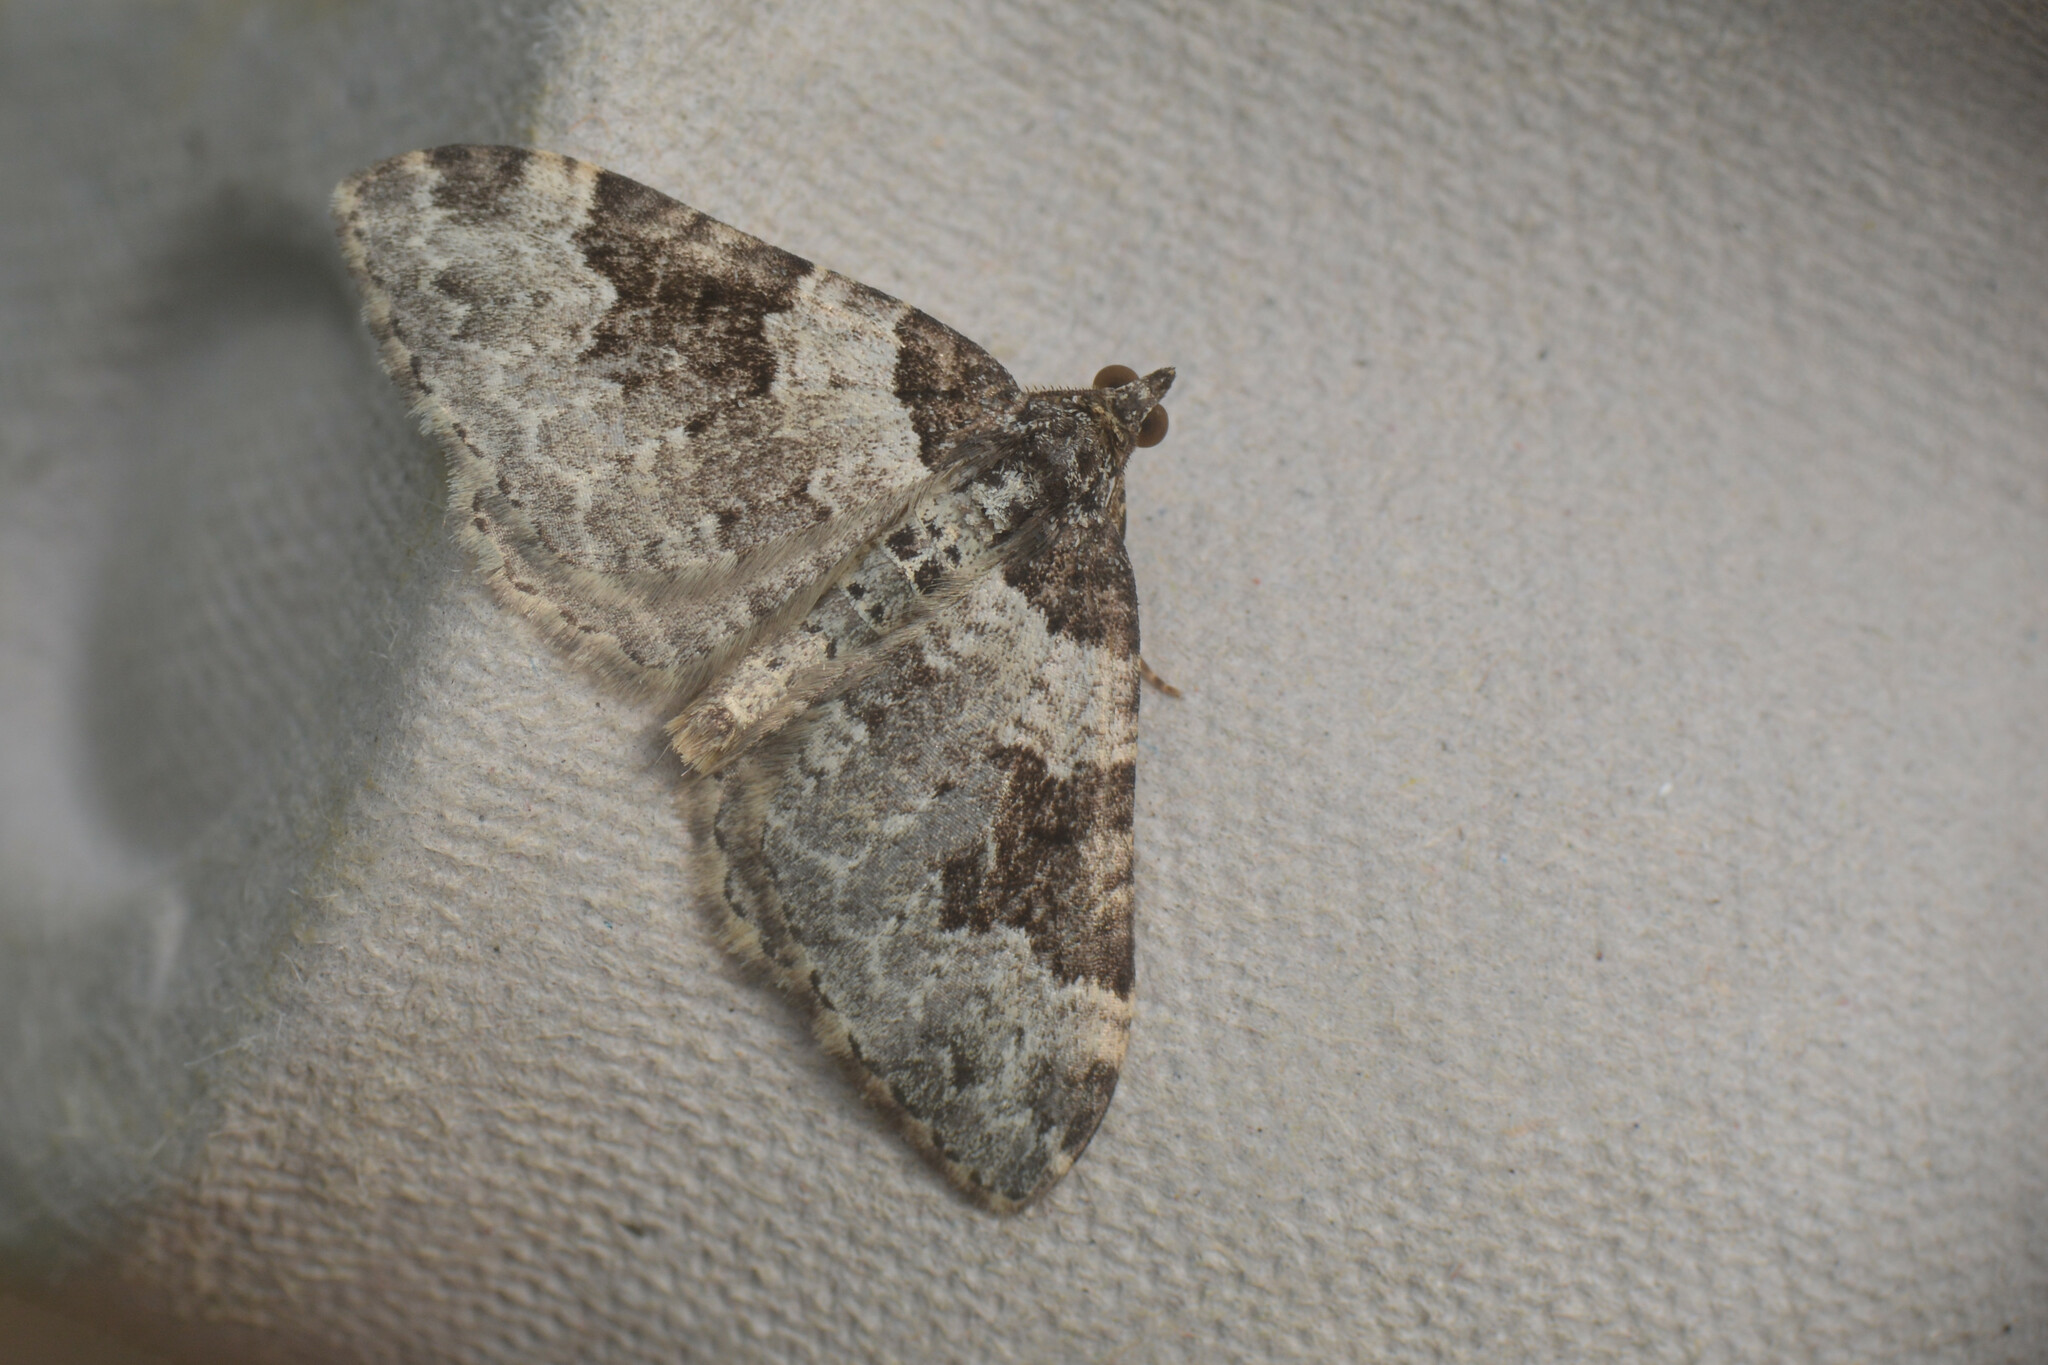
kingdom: Animalia
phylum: Arthropoda
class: Insecta
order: Lepidoptera
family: Geometridae
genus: Xanthorhoe
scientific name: Xanthorhoe fluctuata
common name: Garden carpet
